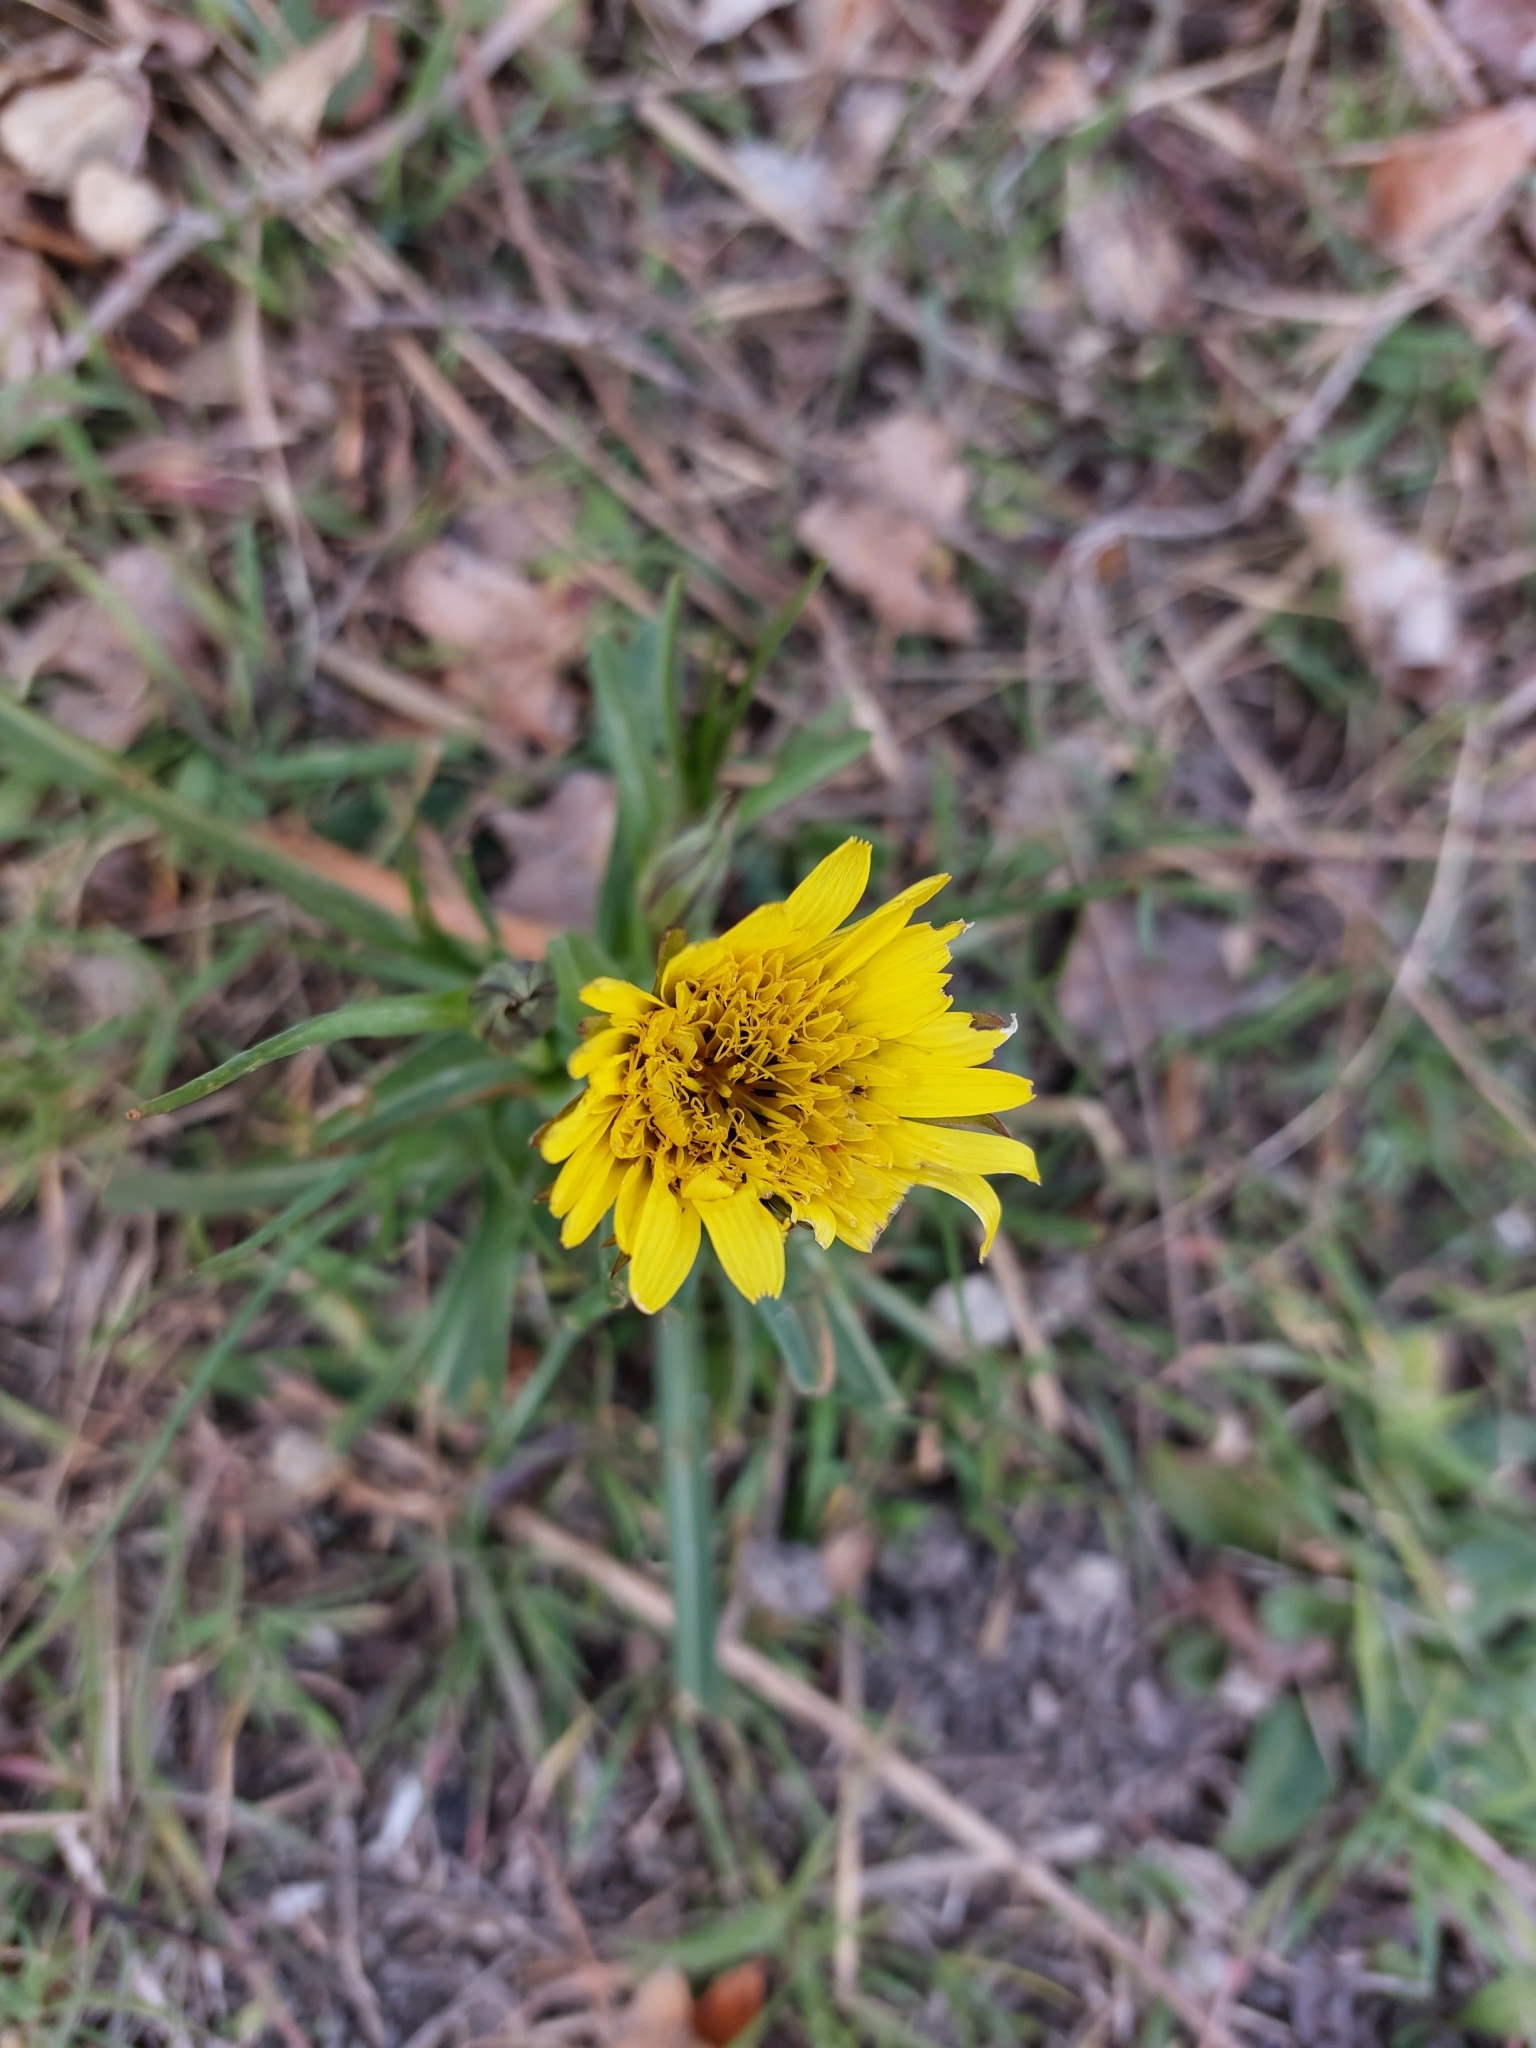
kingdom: Plantae
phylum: Tracheophyta
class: Magnoliopsida
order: Asterales
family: Asteraceae
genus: Tragopogon
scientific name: Tragopogon pratensis
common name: Goat's-beard
